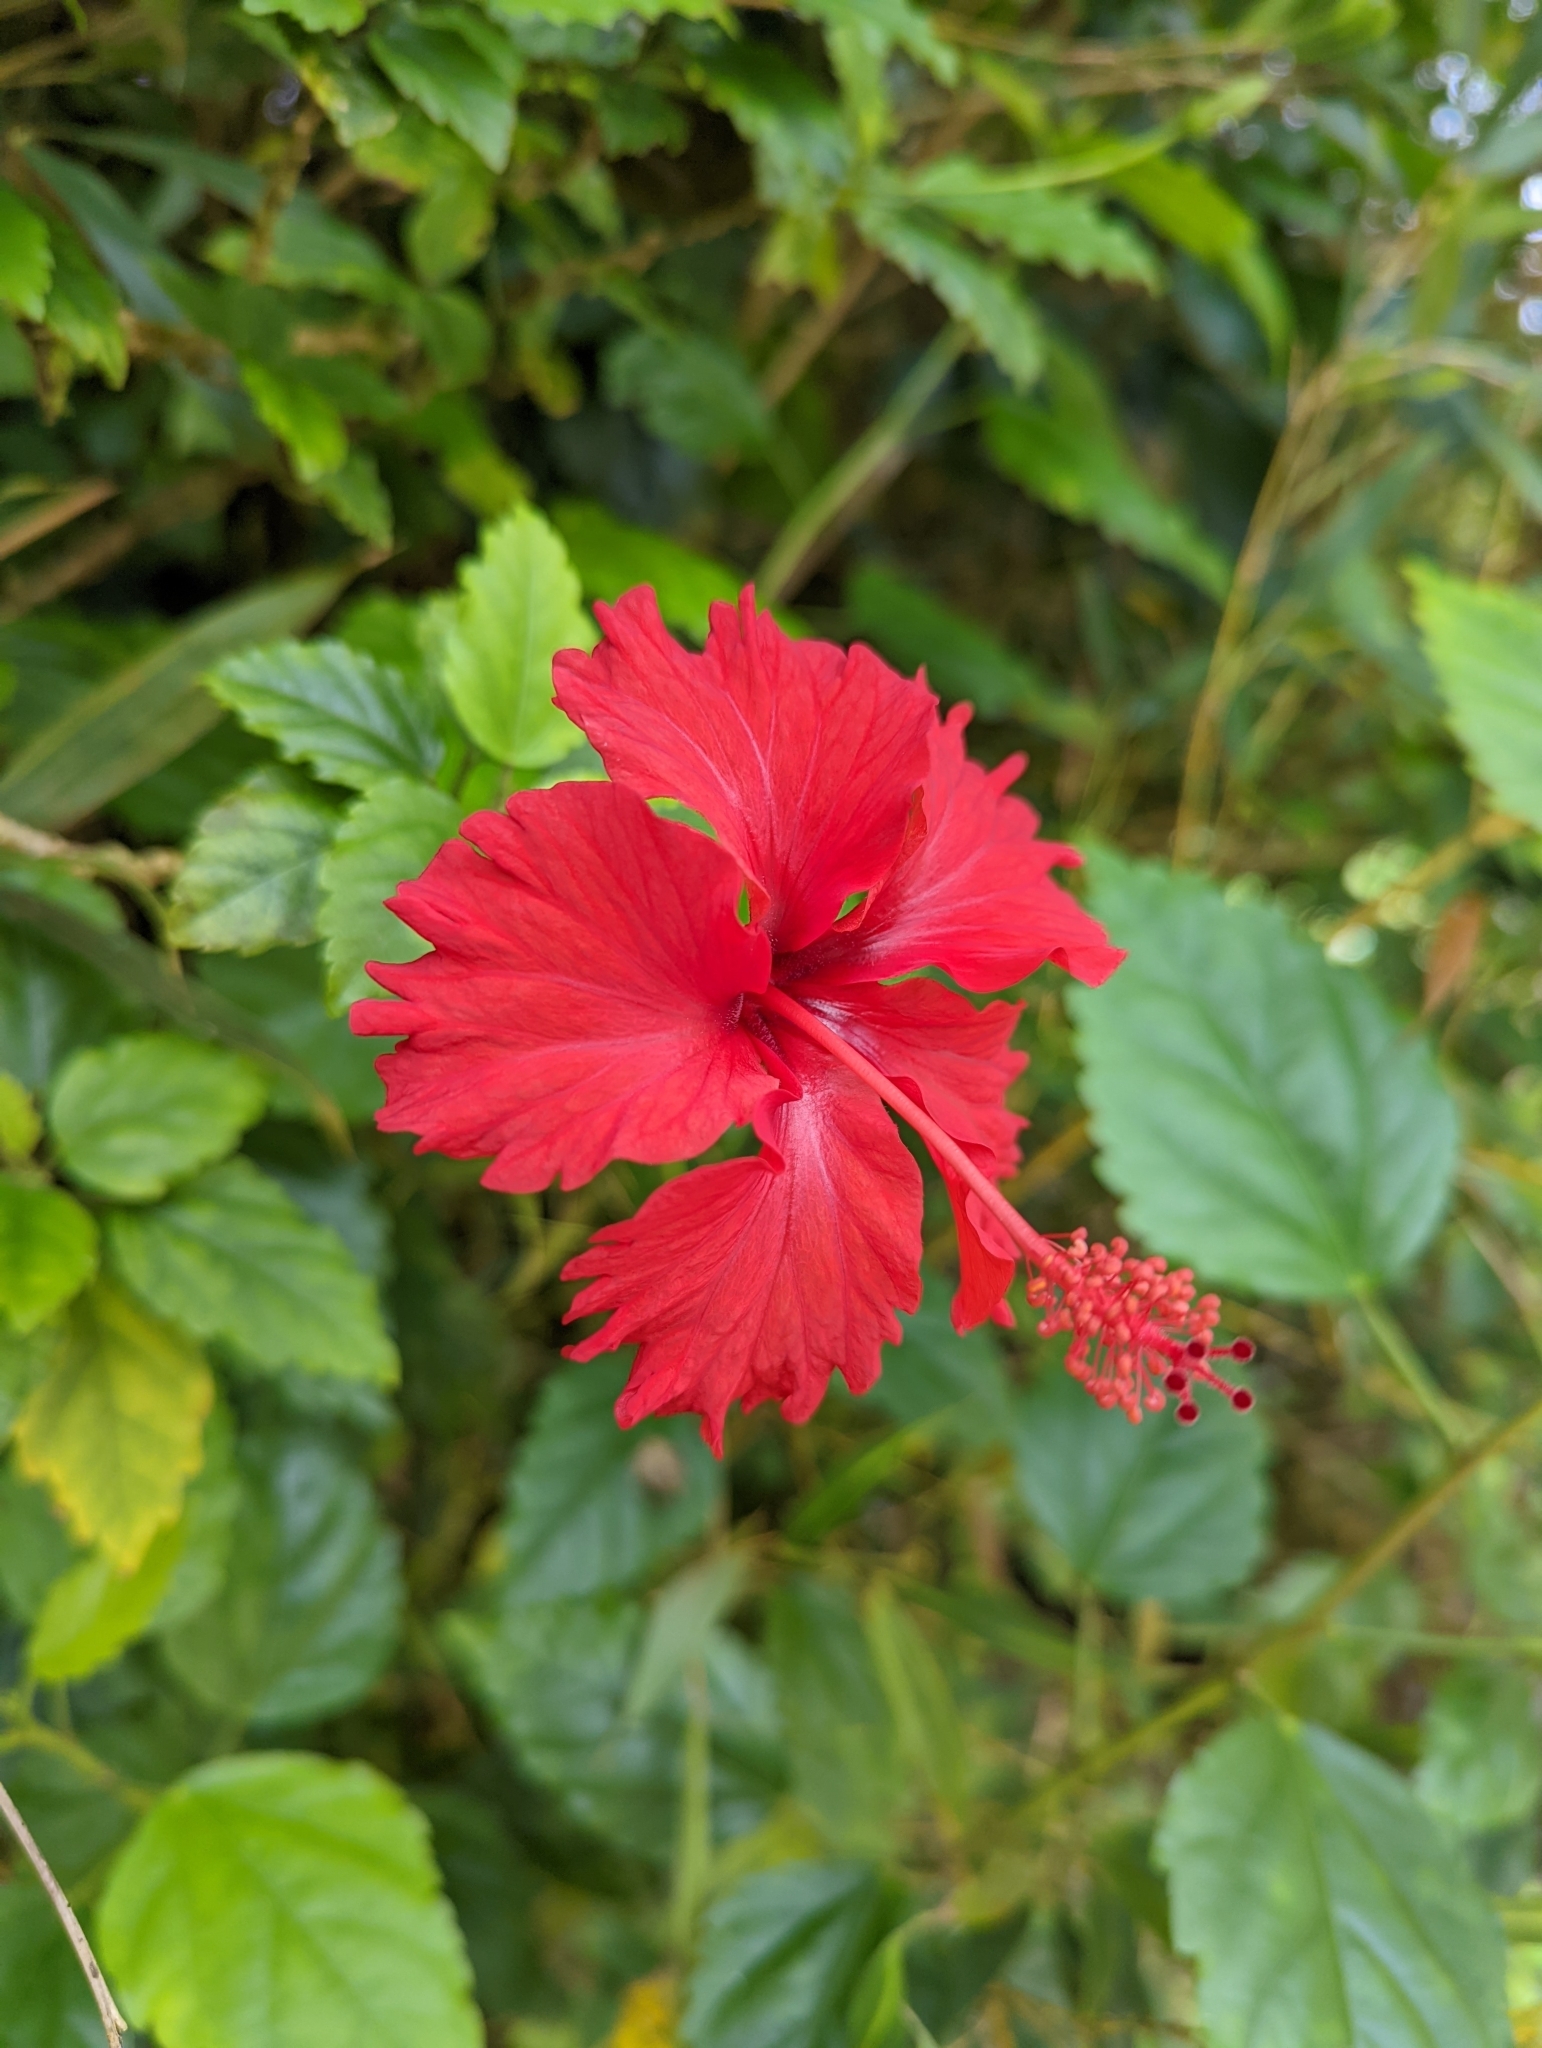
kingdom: Plantae
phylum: Tracheophyta
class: Magnoliopsida
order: Malvales
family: Malvaceae
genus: Hibiscus
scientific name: Hibiscus archeri
